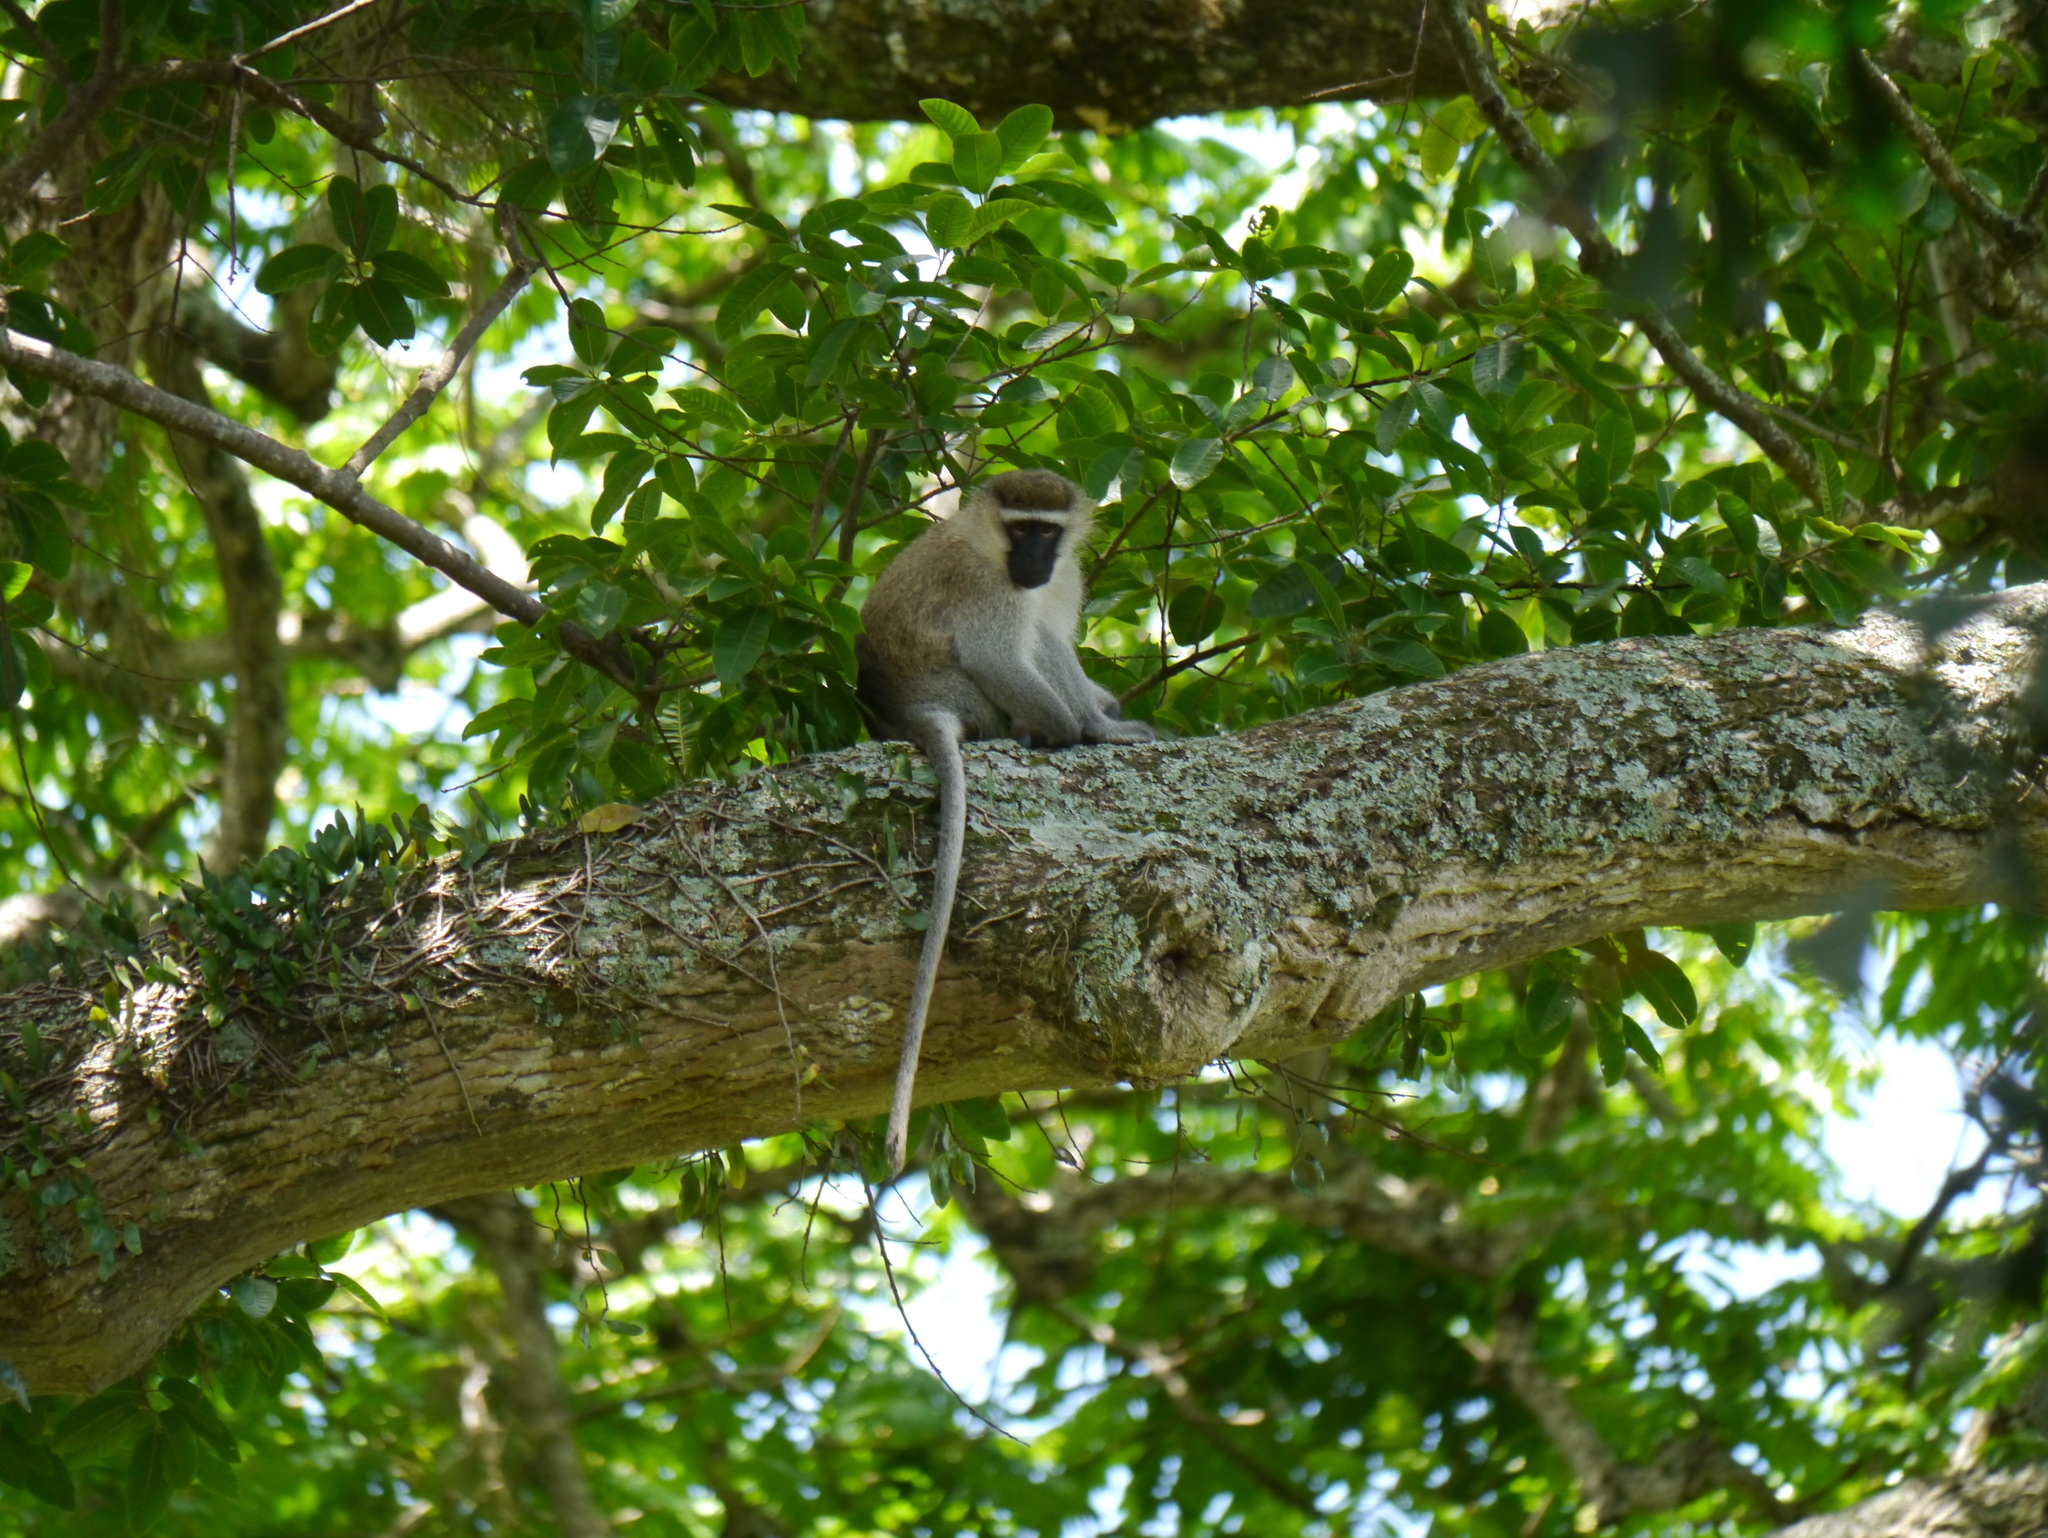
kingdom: Animalia
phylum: Chordata
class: Mammalia
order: Primates
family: Cercopithecidae
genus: Chlorocebus
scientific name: Chlorocebus pygerythrus
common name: Vervet monkey
